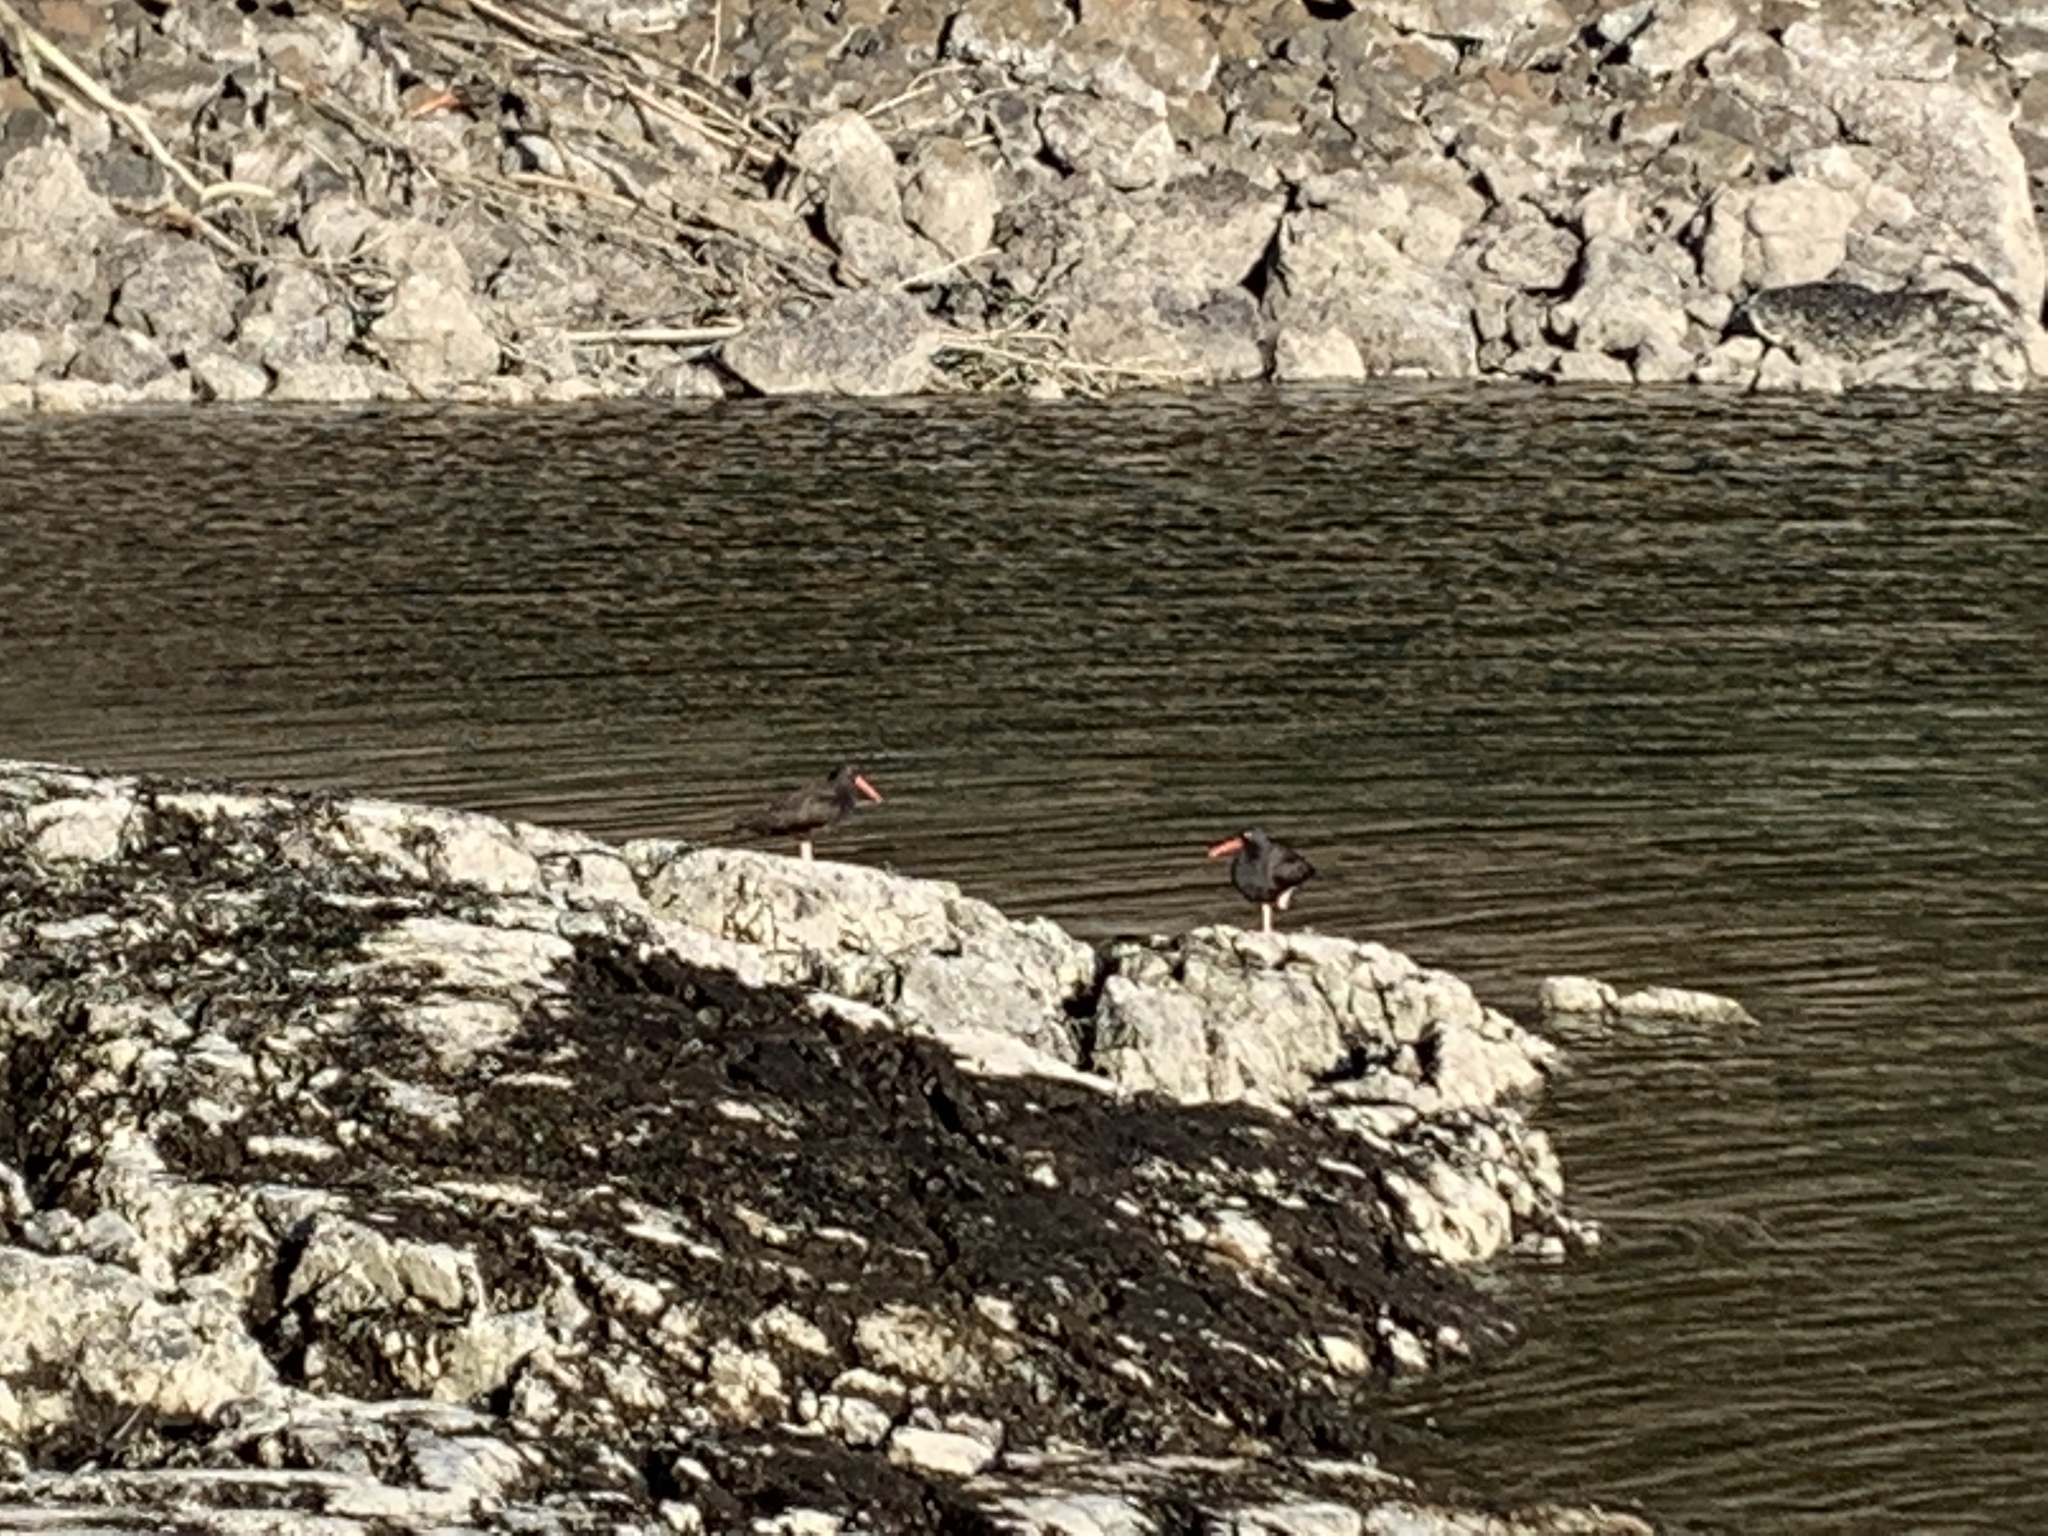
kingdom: Animalia
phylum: Chordata
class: Aves
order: Charadriiformes
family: Haematopodidae
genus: Haematopus
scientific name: Haematopus bachmani
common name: Black oystercatcher
